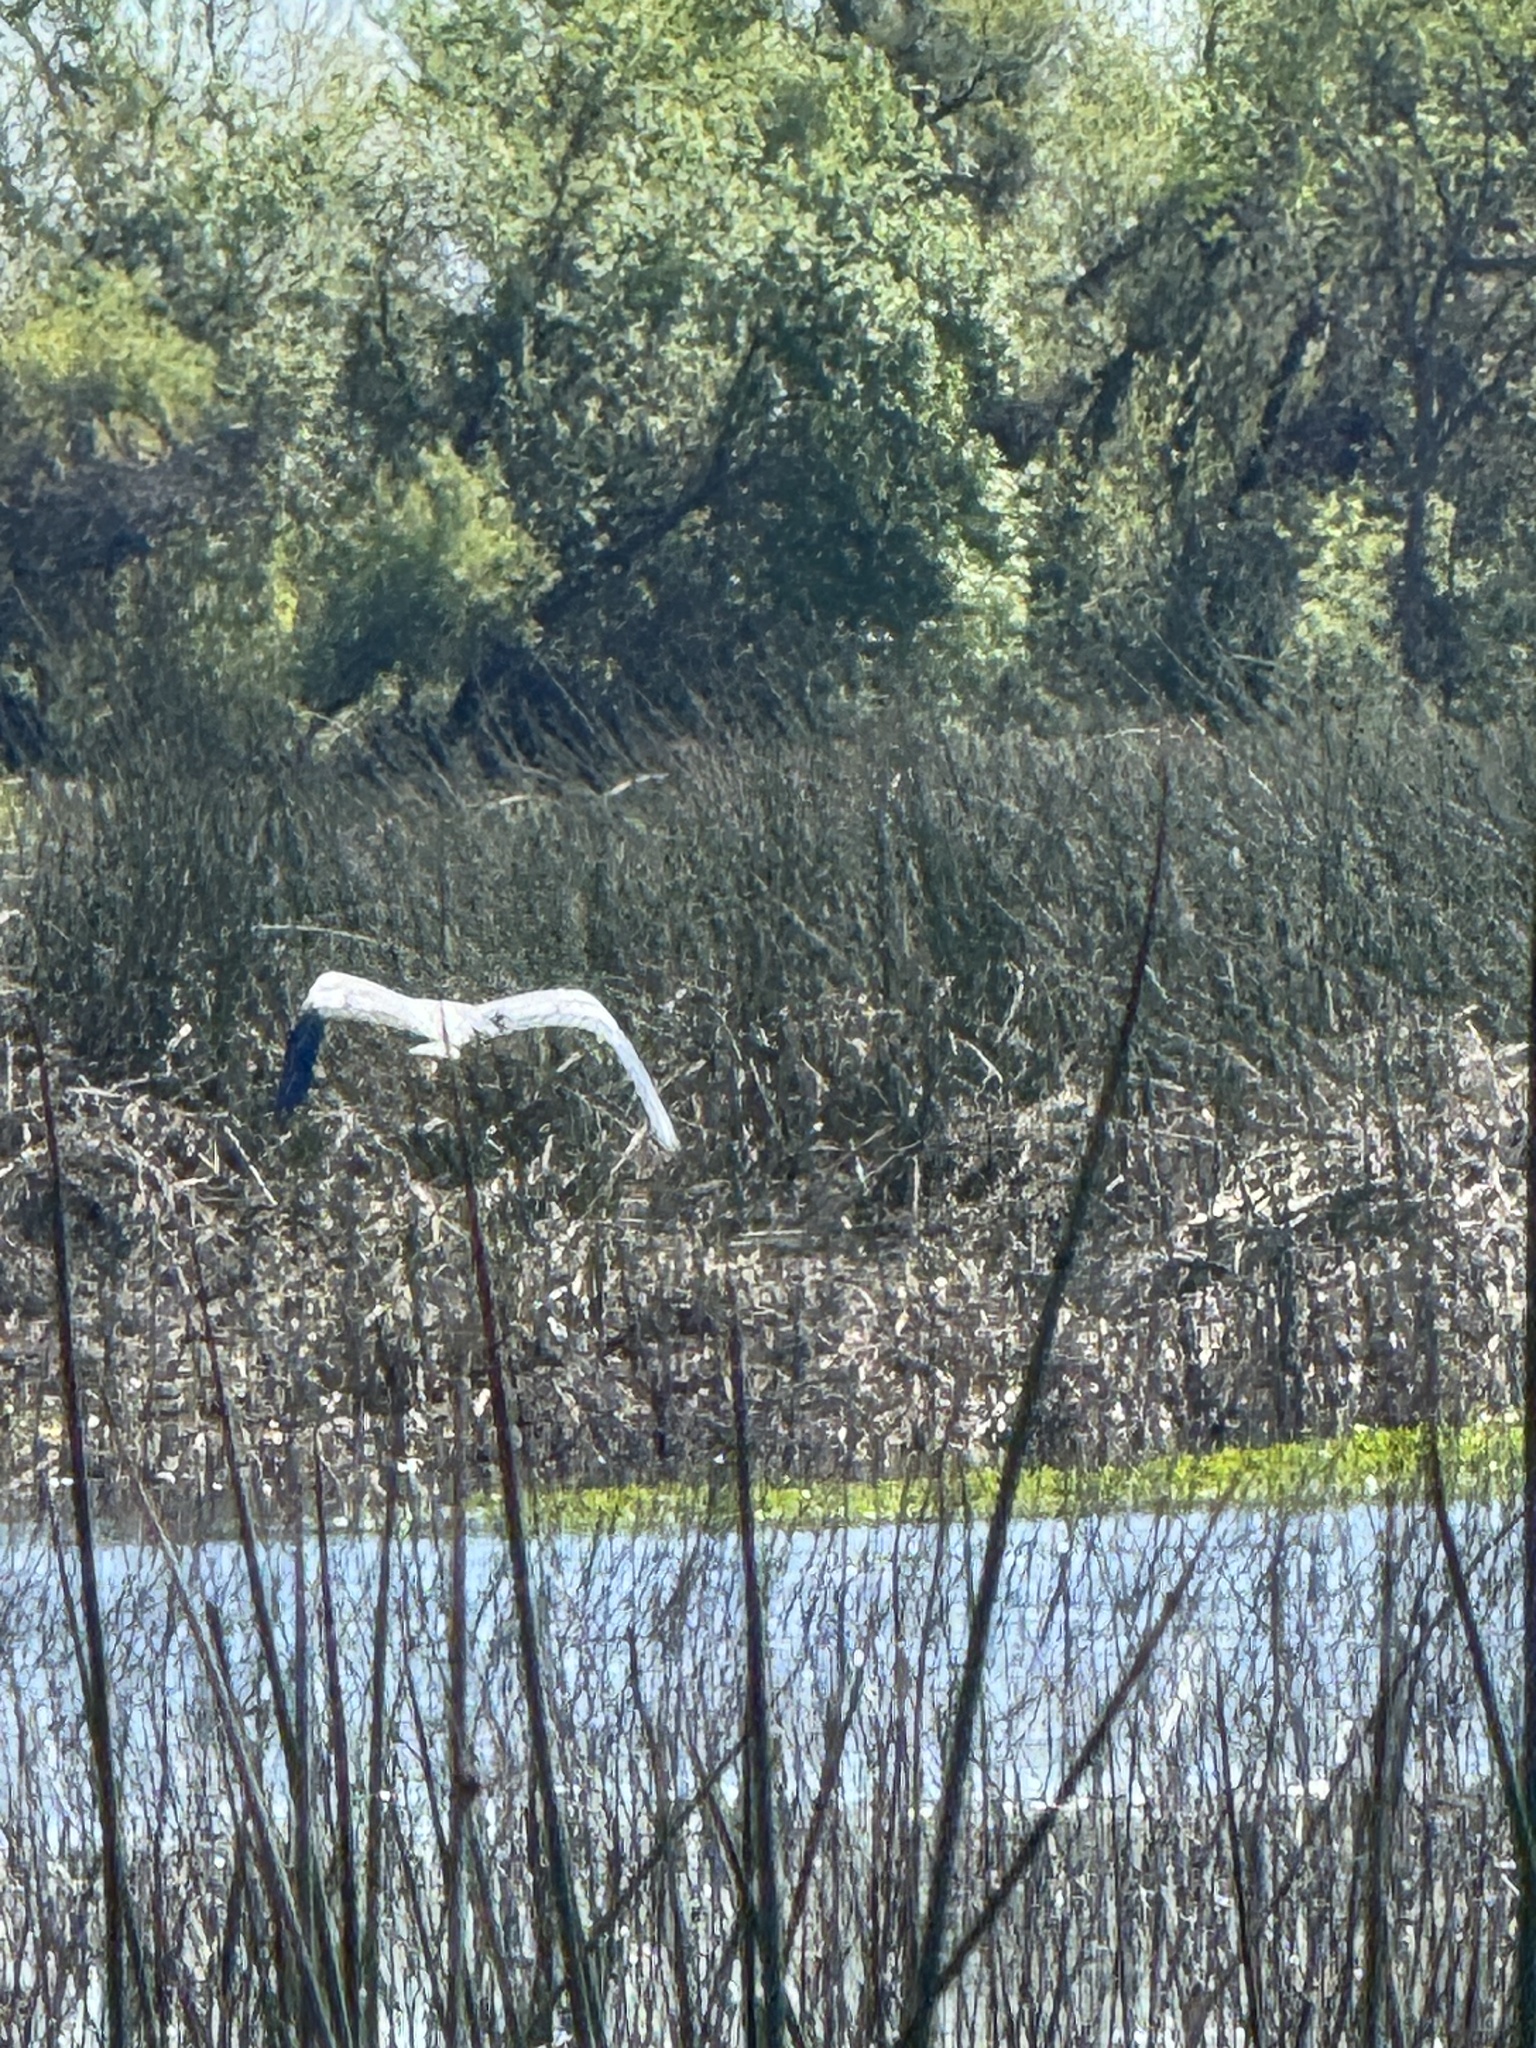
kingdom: Animalia
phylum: Chordata
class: Aves
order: Pelecaniformes
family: Ardeidae
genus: Ardea
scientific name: Ardea herodias
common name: Great blue heron
